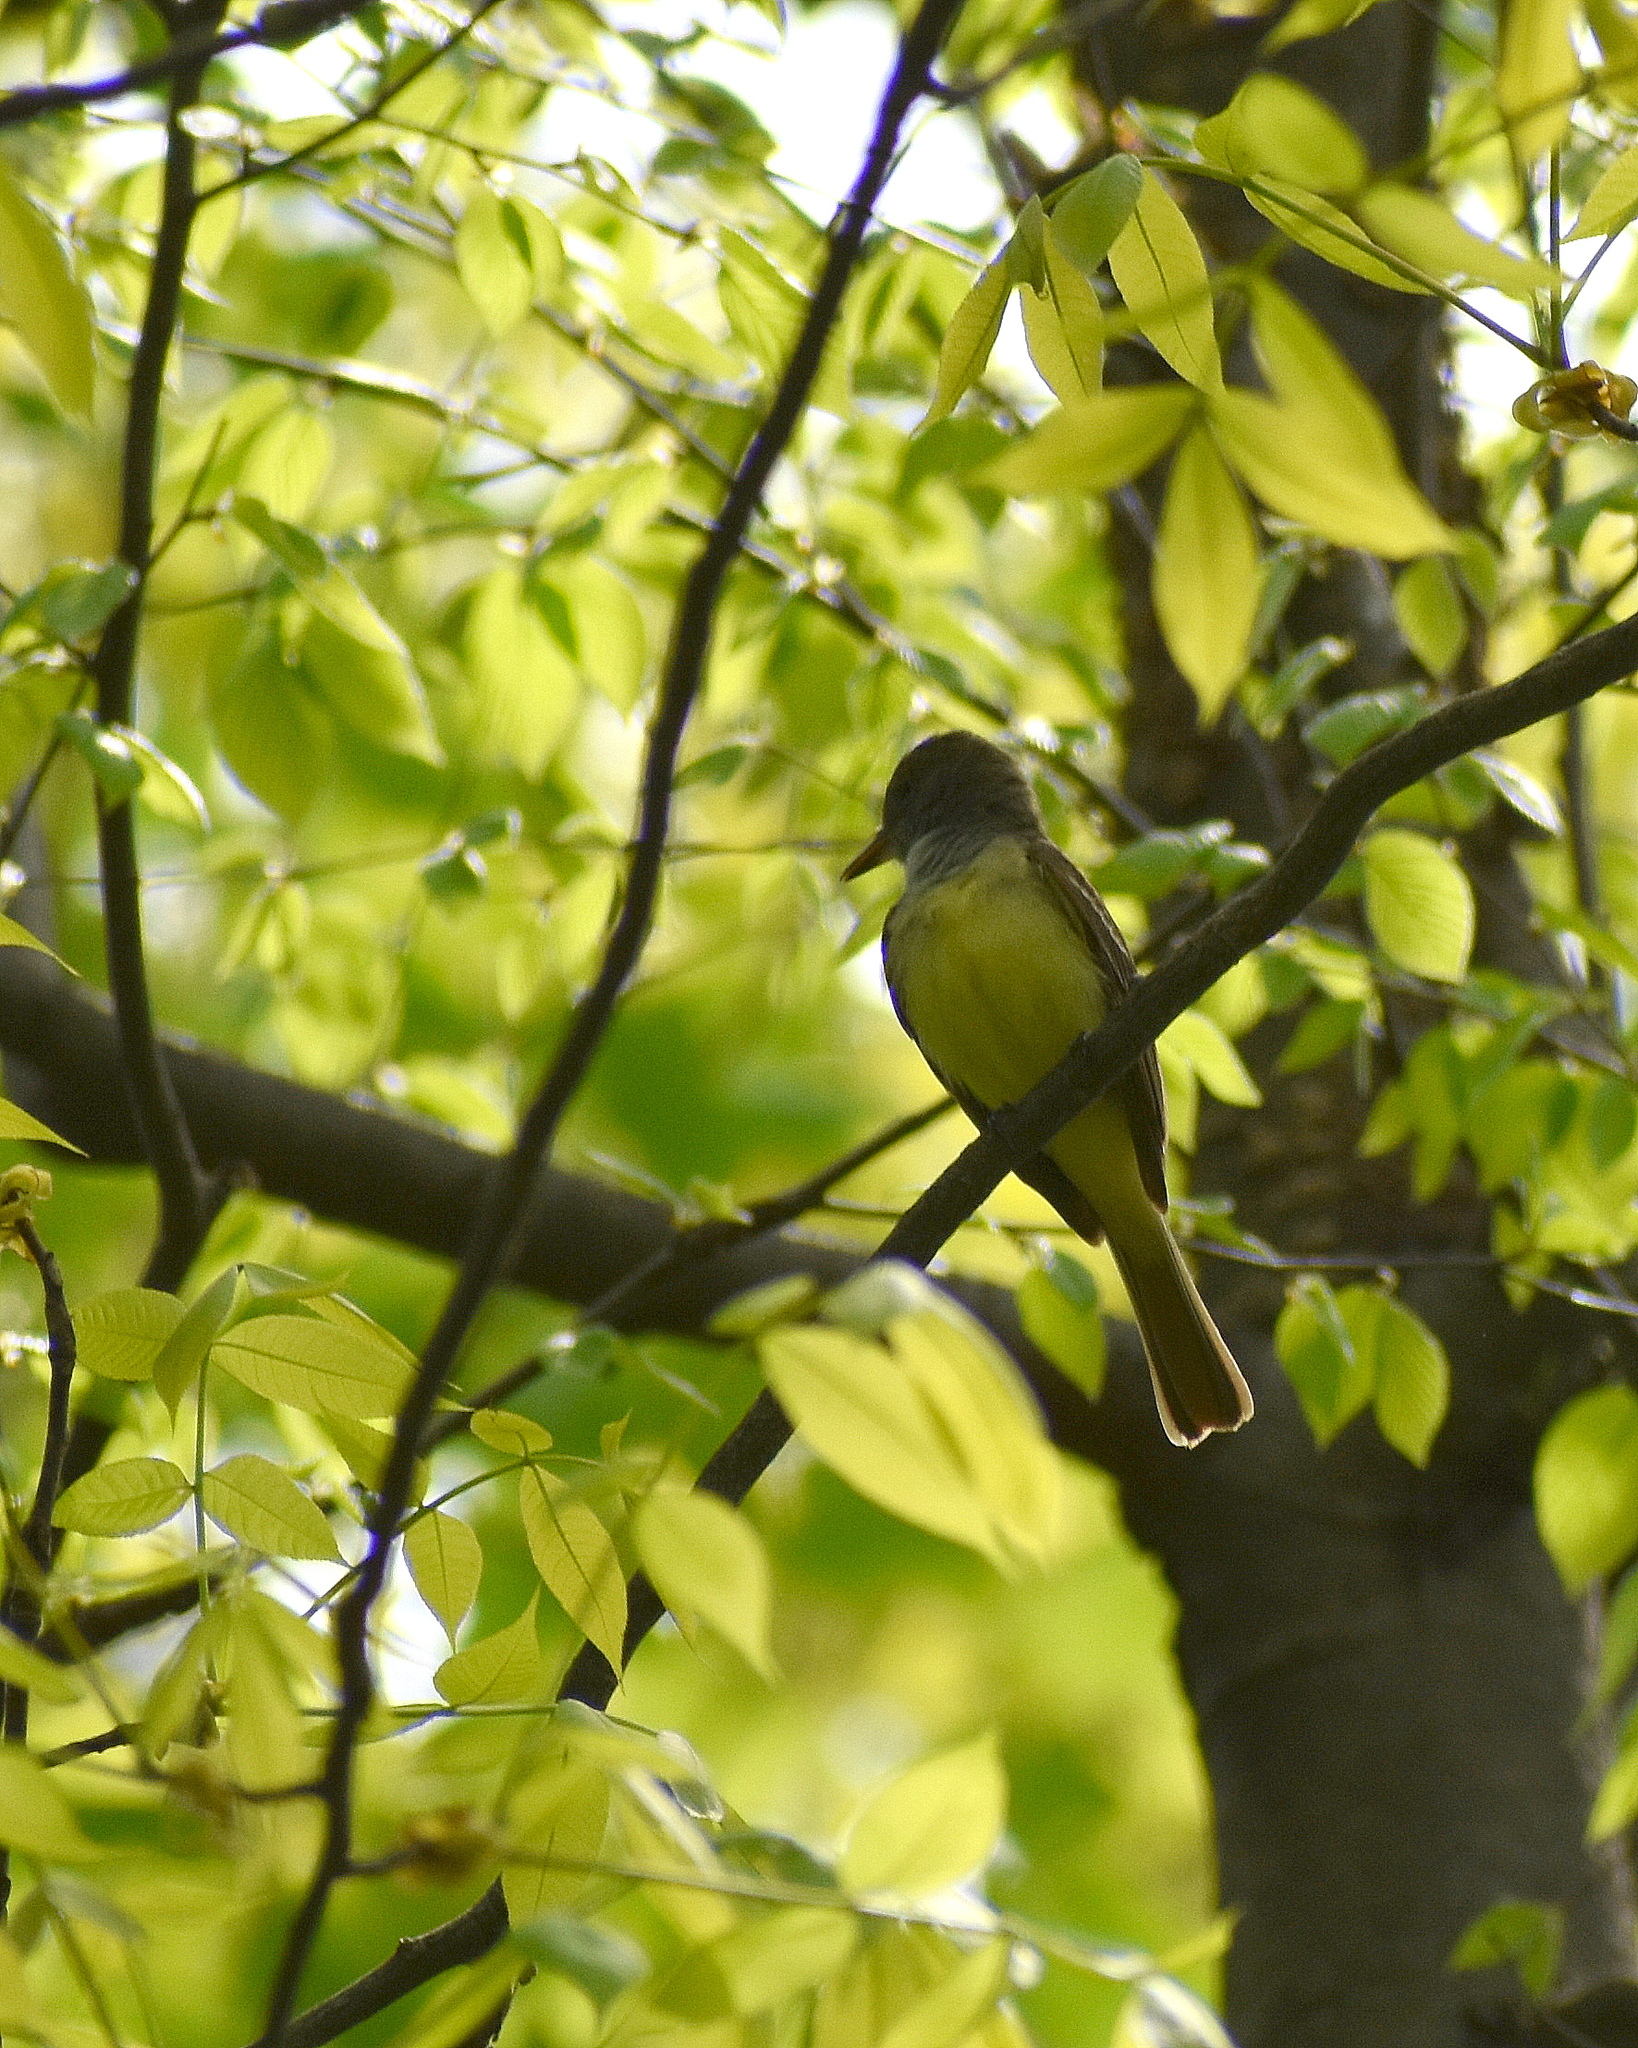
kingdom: Animalia
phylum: Chordata
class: Aves
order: Passeriformes
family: Tyrannidae
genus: Myiarchus
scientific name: Myiarchus crinitus
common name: Great crested flycatcher
